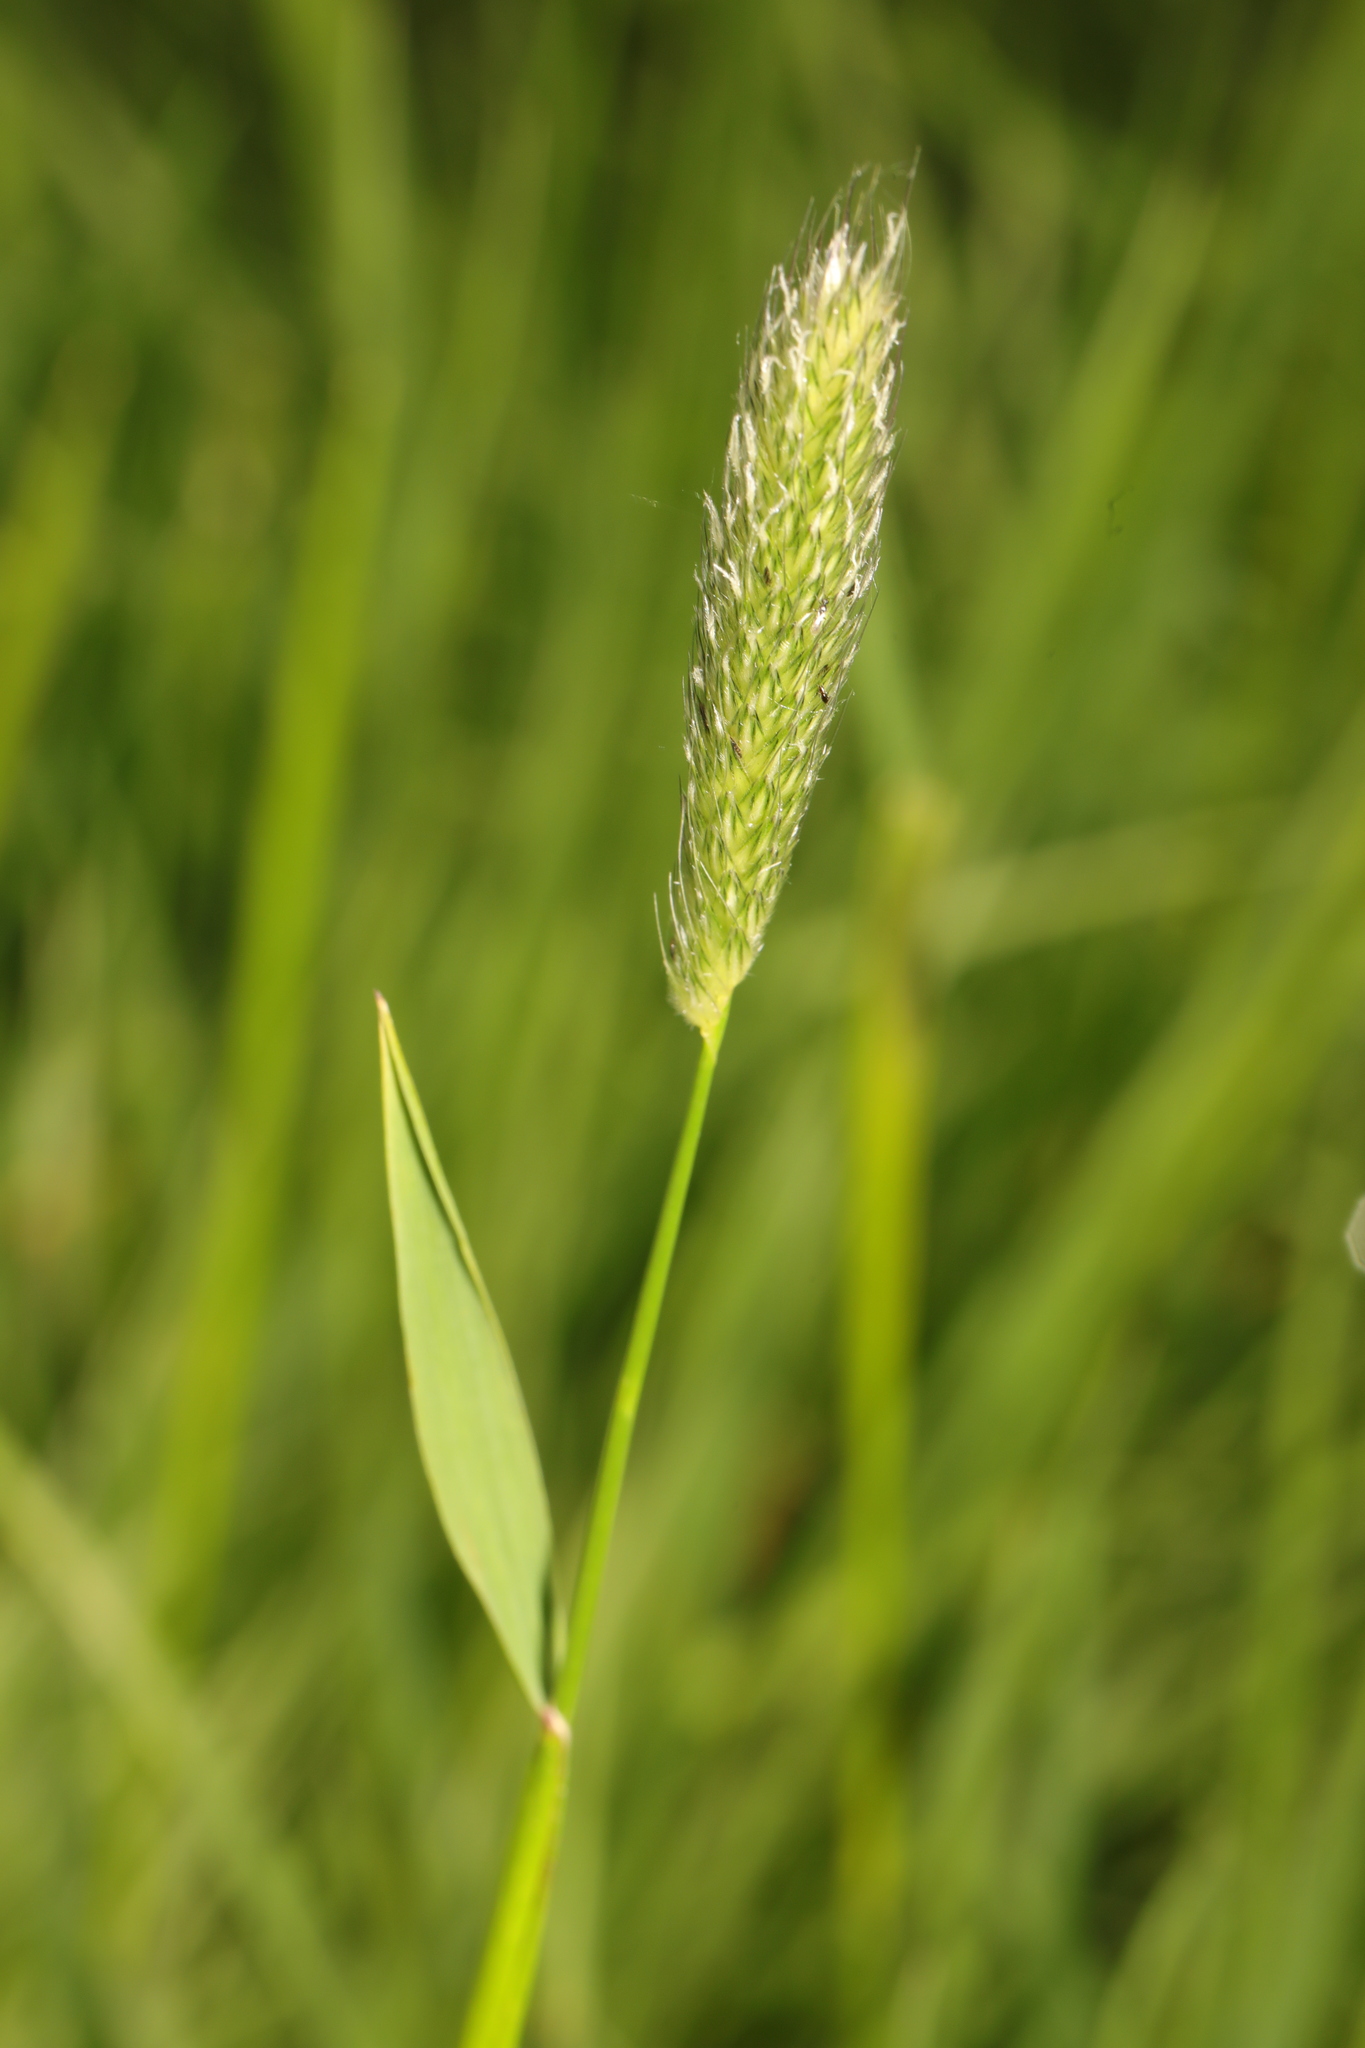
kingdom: Plantae
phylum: Tracheophyta
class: Liliopsida
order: Poales
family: Poaceae
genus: Alopecurus
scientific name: Alopecurus pratensis
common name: Meadow foxtail
